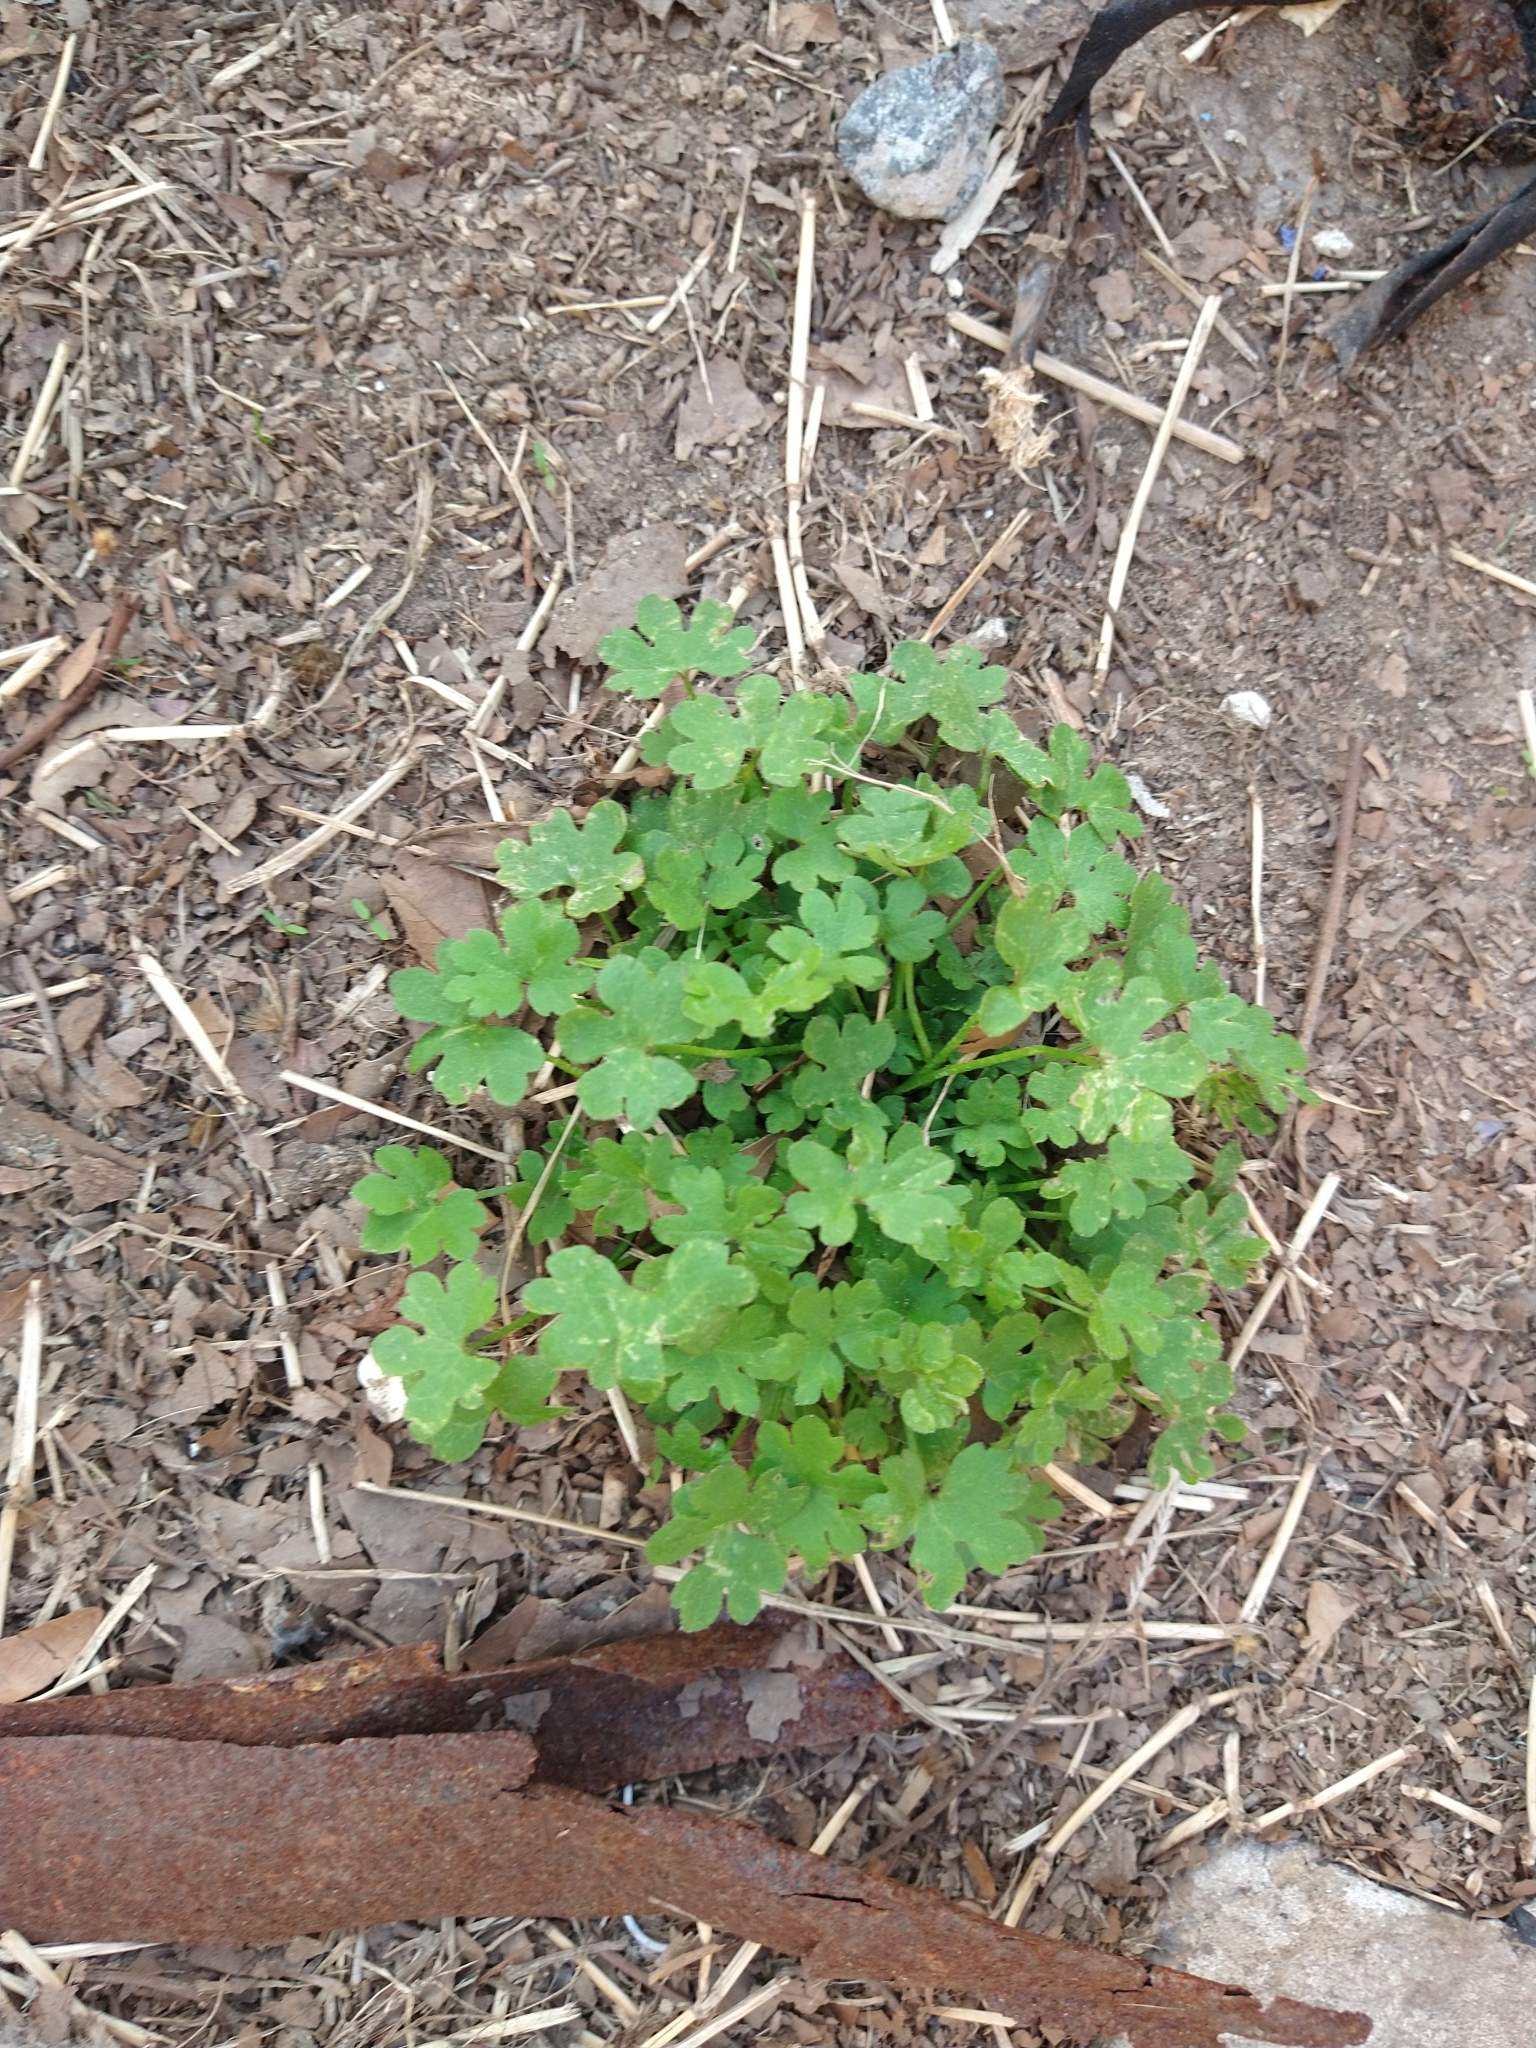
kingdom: Plantae
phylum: Tracheophyta
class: Magnoliopsida
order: Apiales
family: Apiaceae
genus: Bowlesia
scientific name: Bowlesia incana
